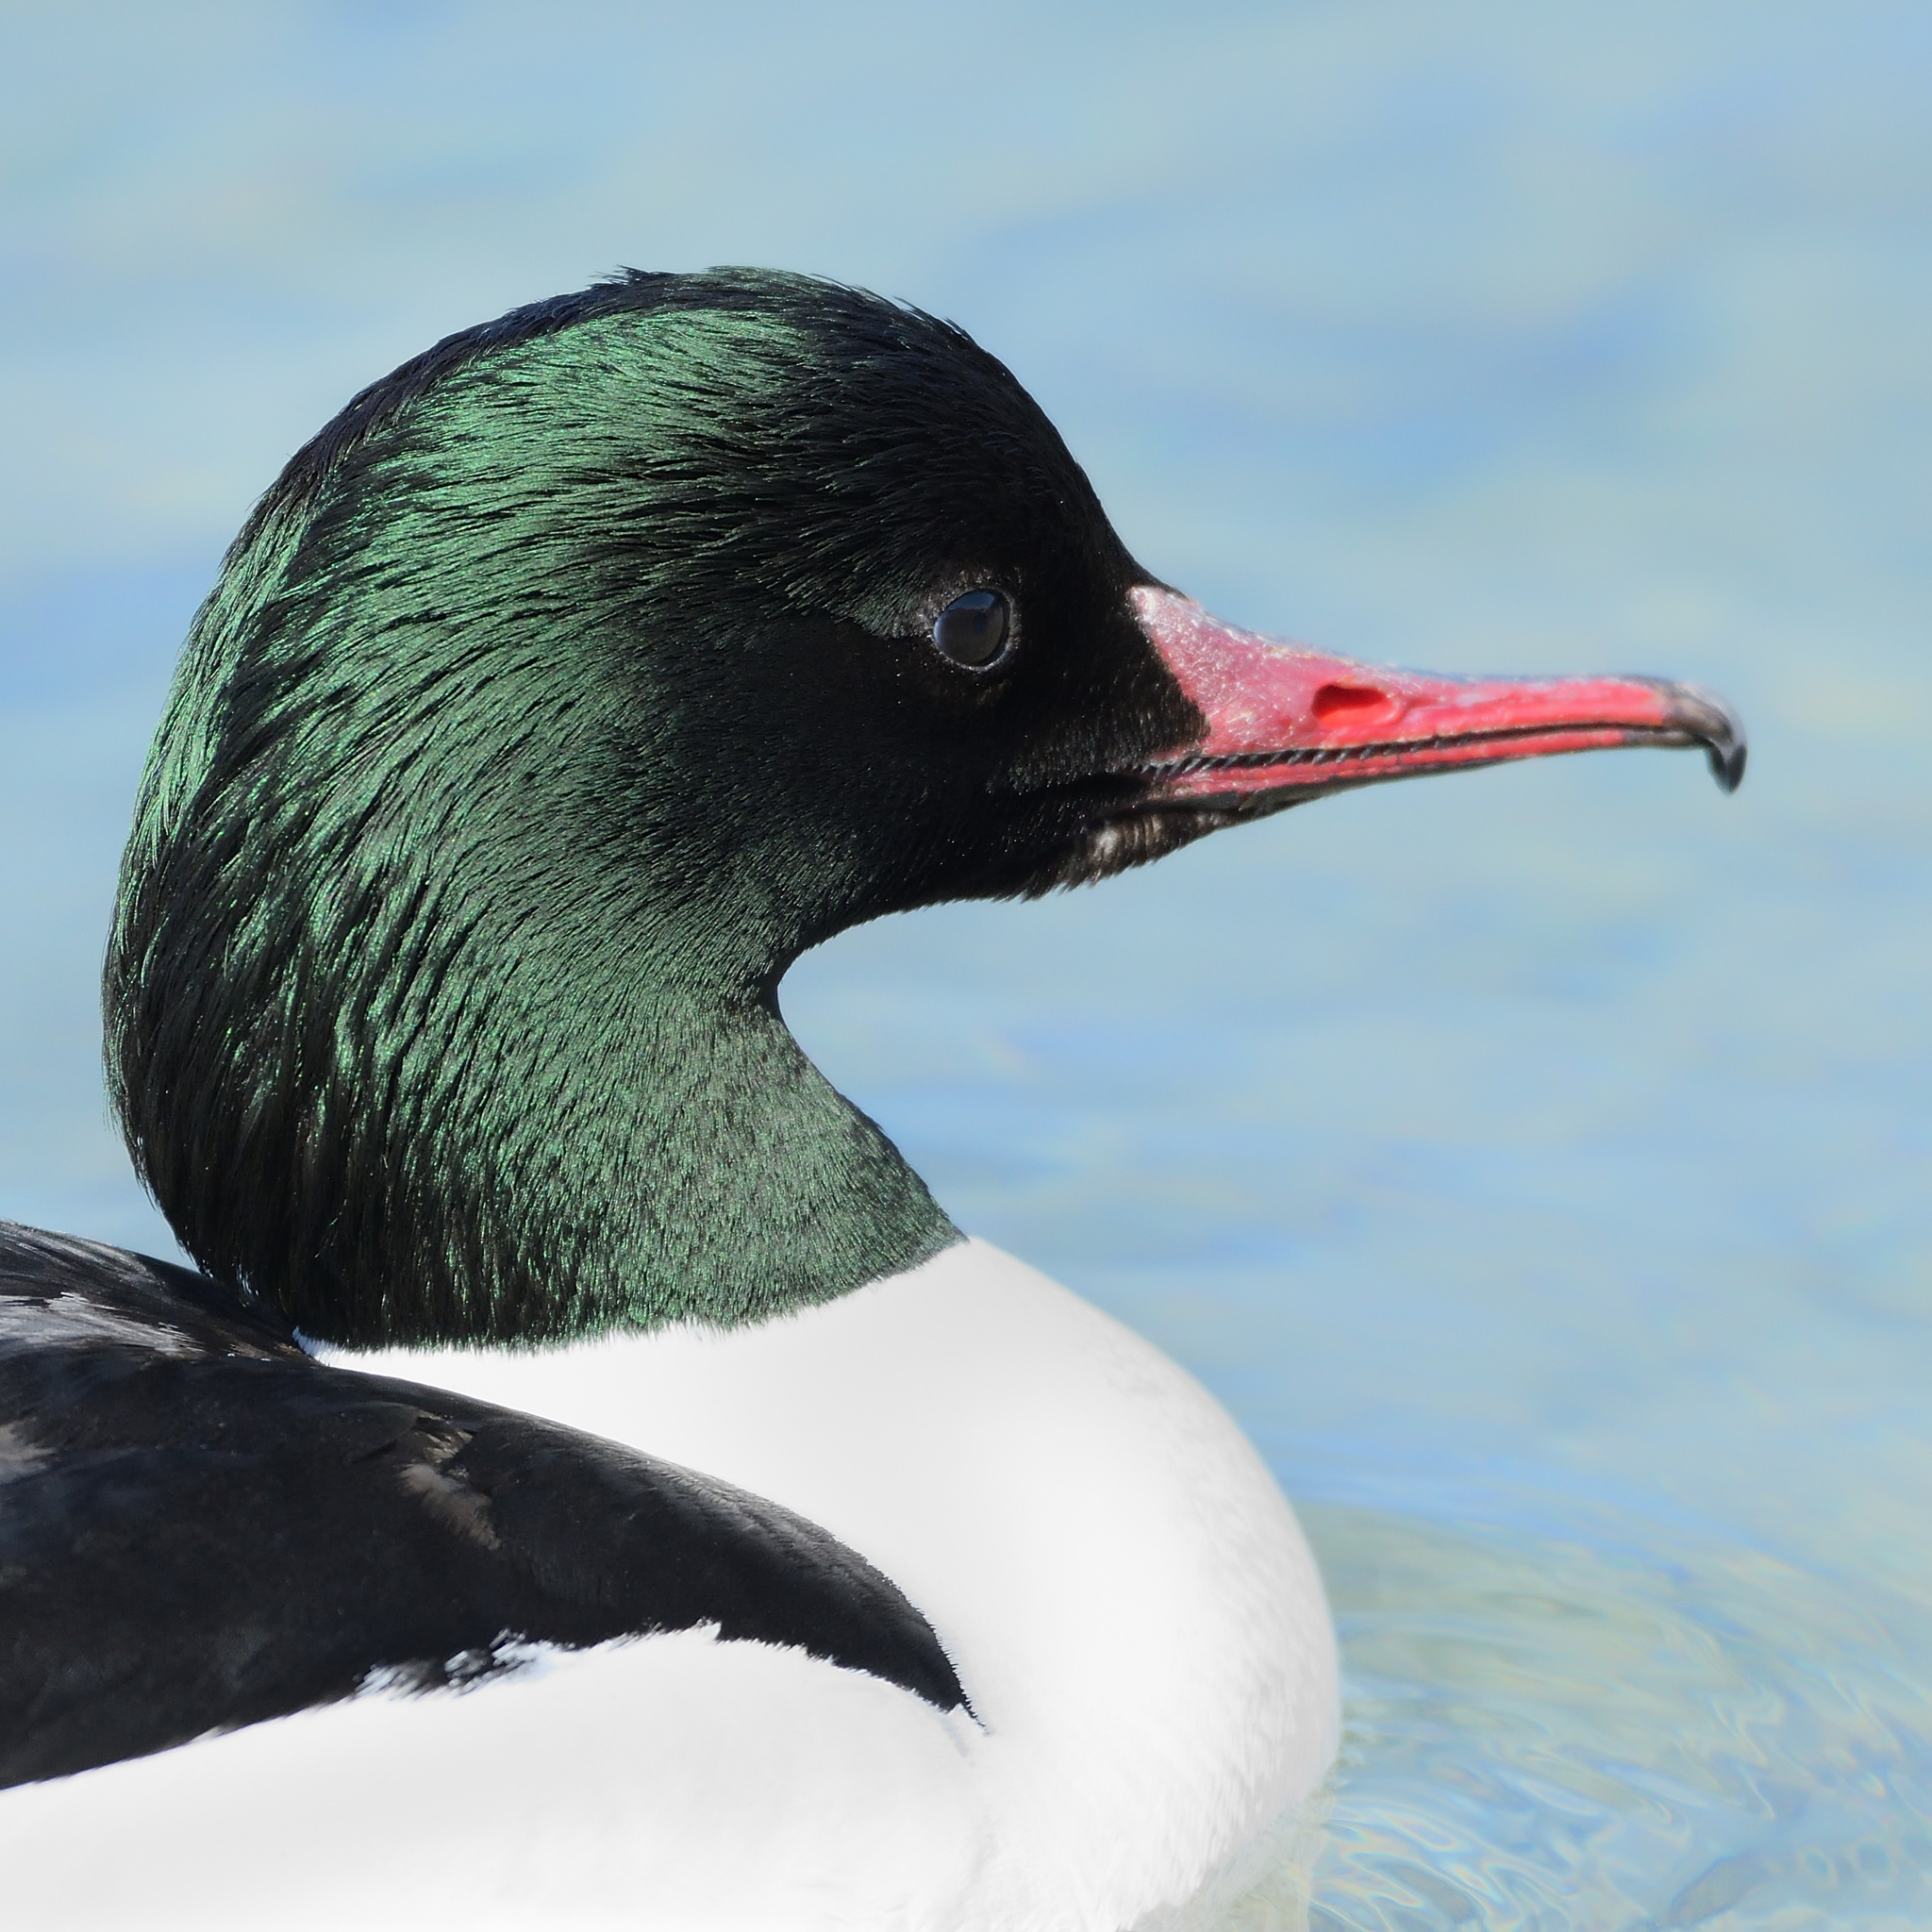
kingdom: Animalia
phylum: Chordata
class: Aves
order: Anseriformes
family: Anatidae
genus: Mergus
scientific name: Mergus merganser
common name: Common merganser
